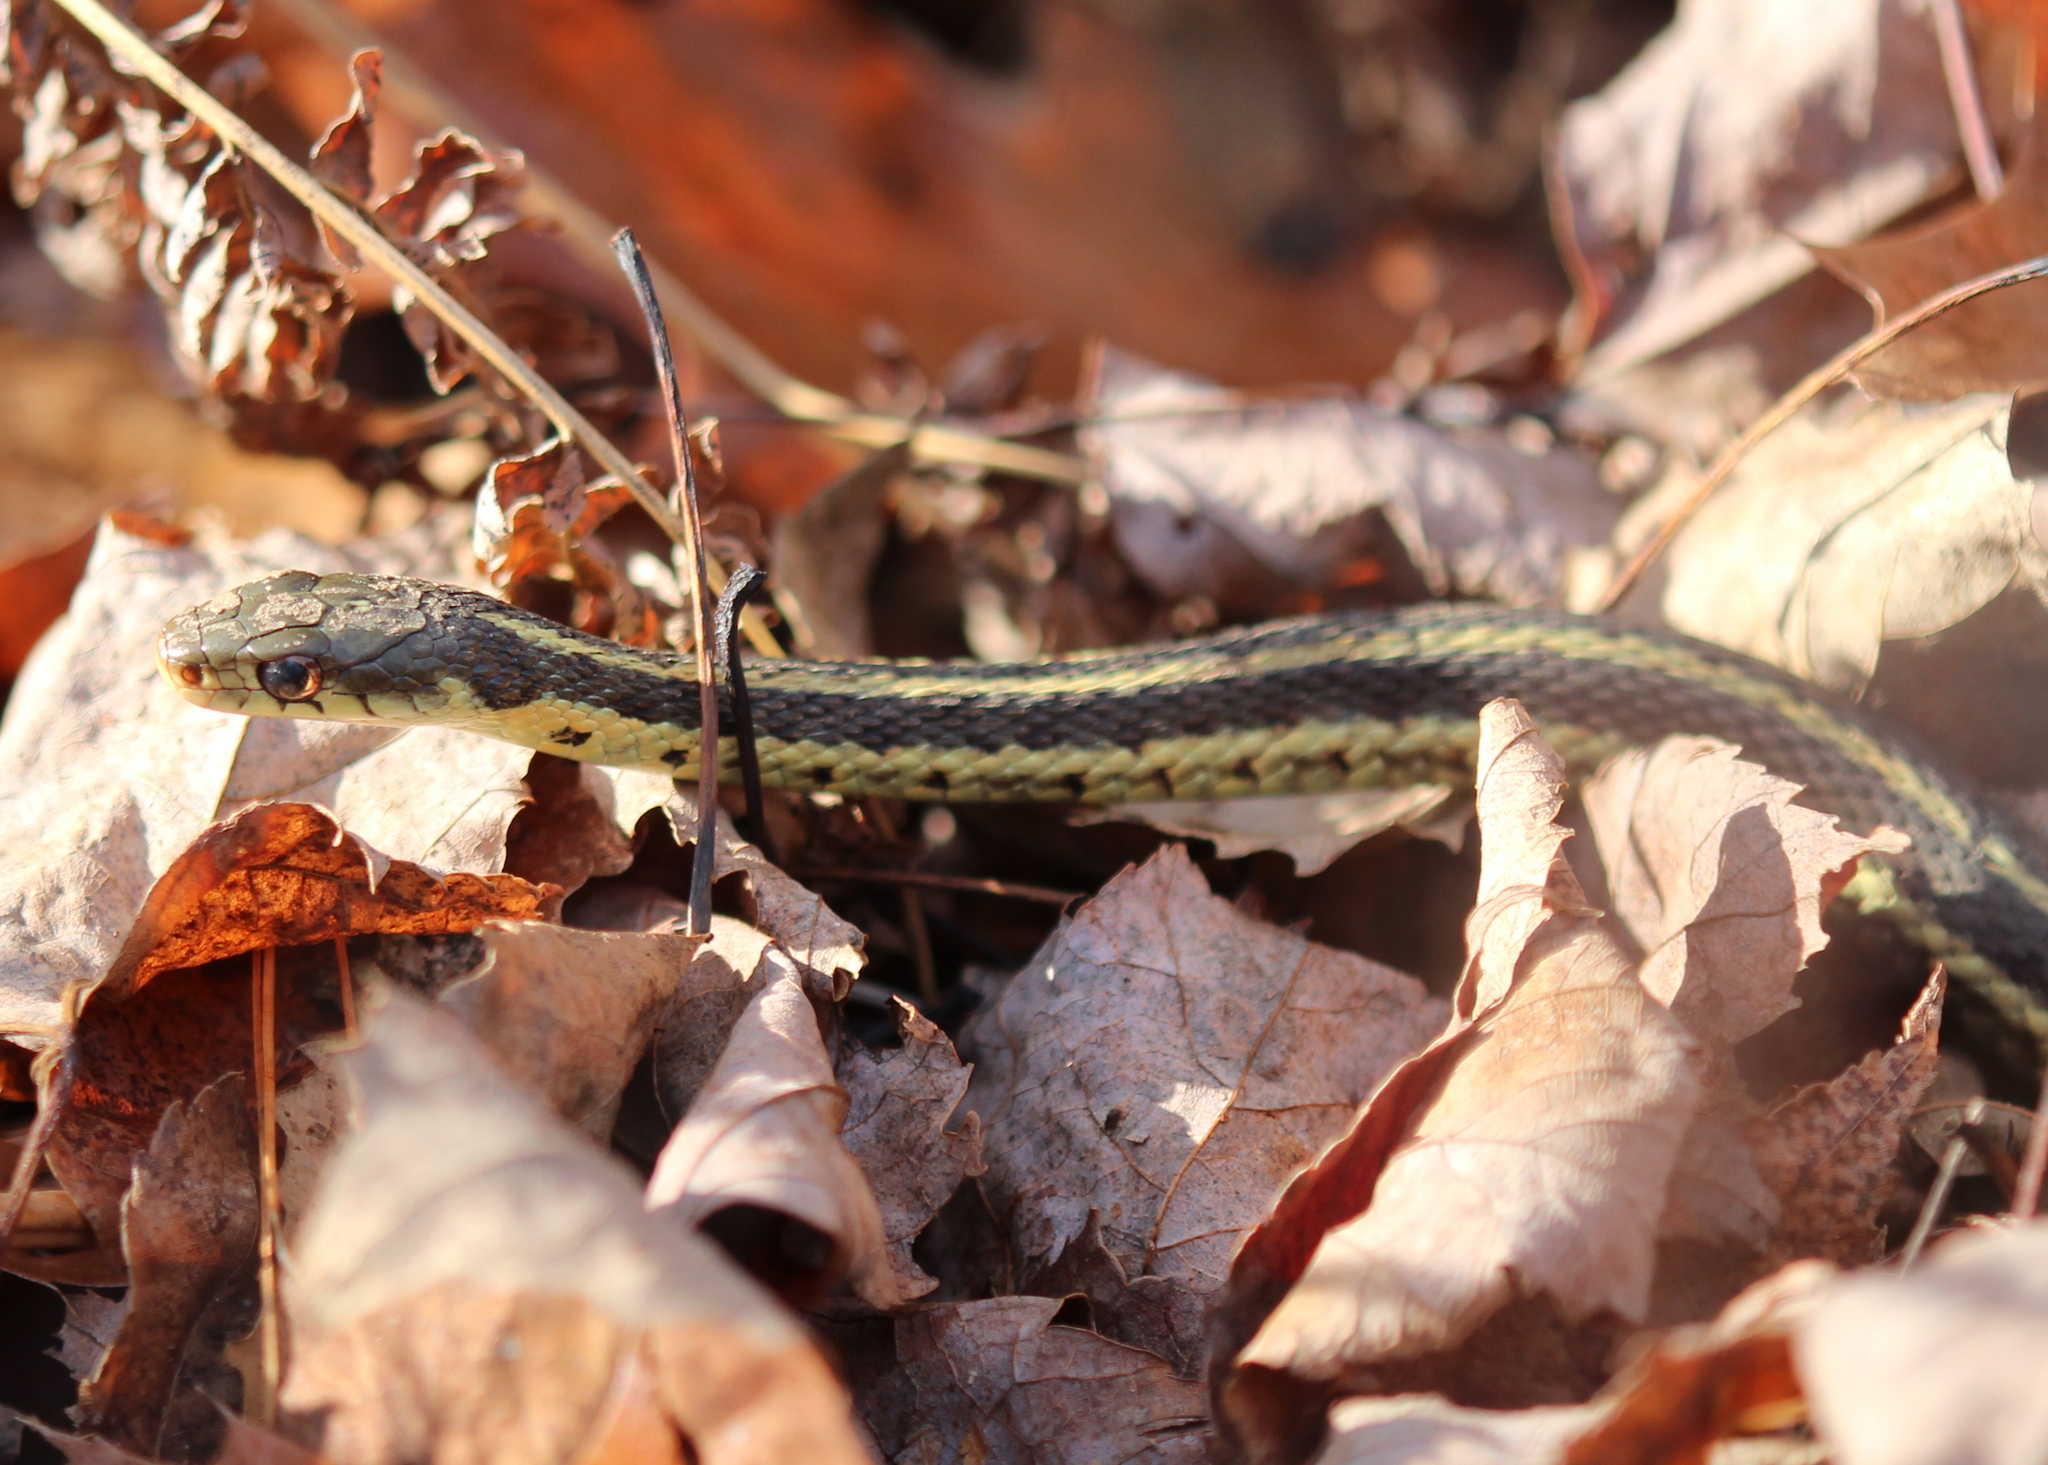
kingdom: Animalia
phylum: Chordata
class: Squamata
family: Colubridae
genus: Thamnophis
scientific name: Thamnophis sirtalis
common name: Common garter snake
